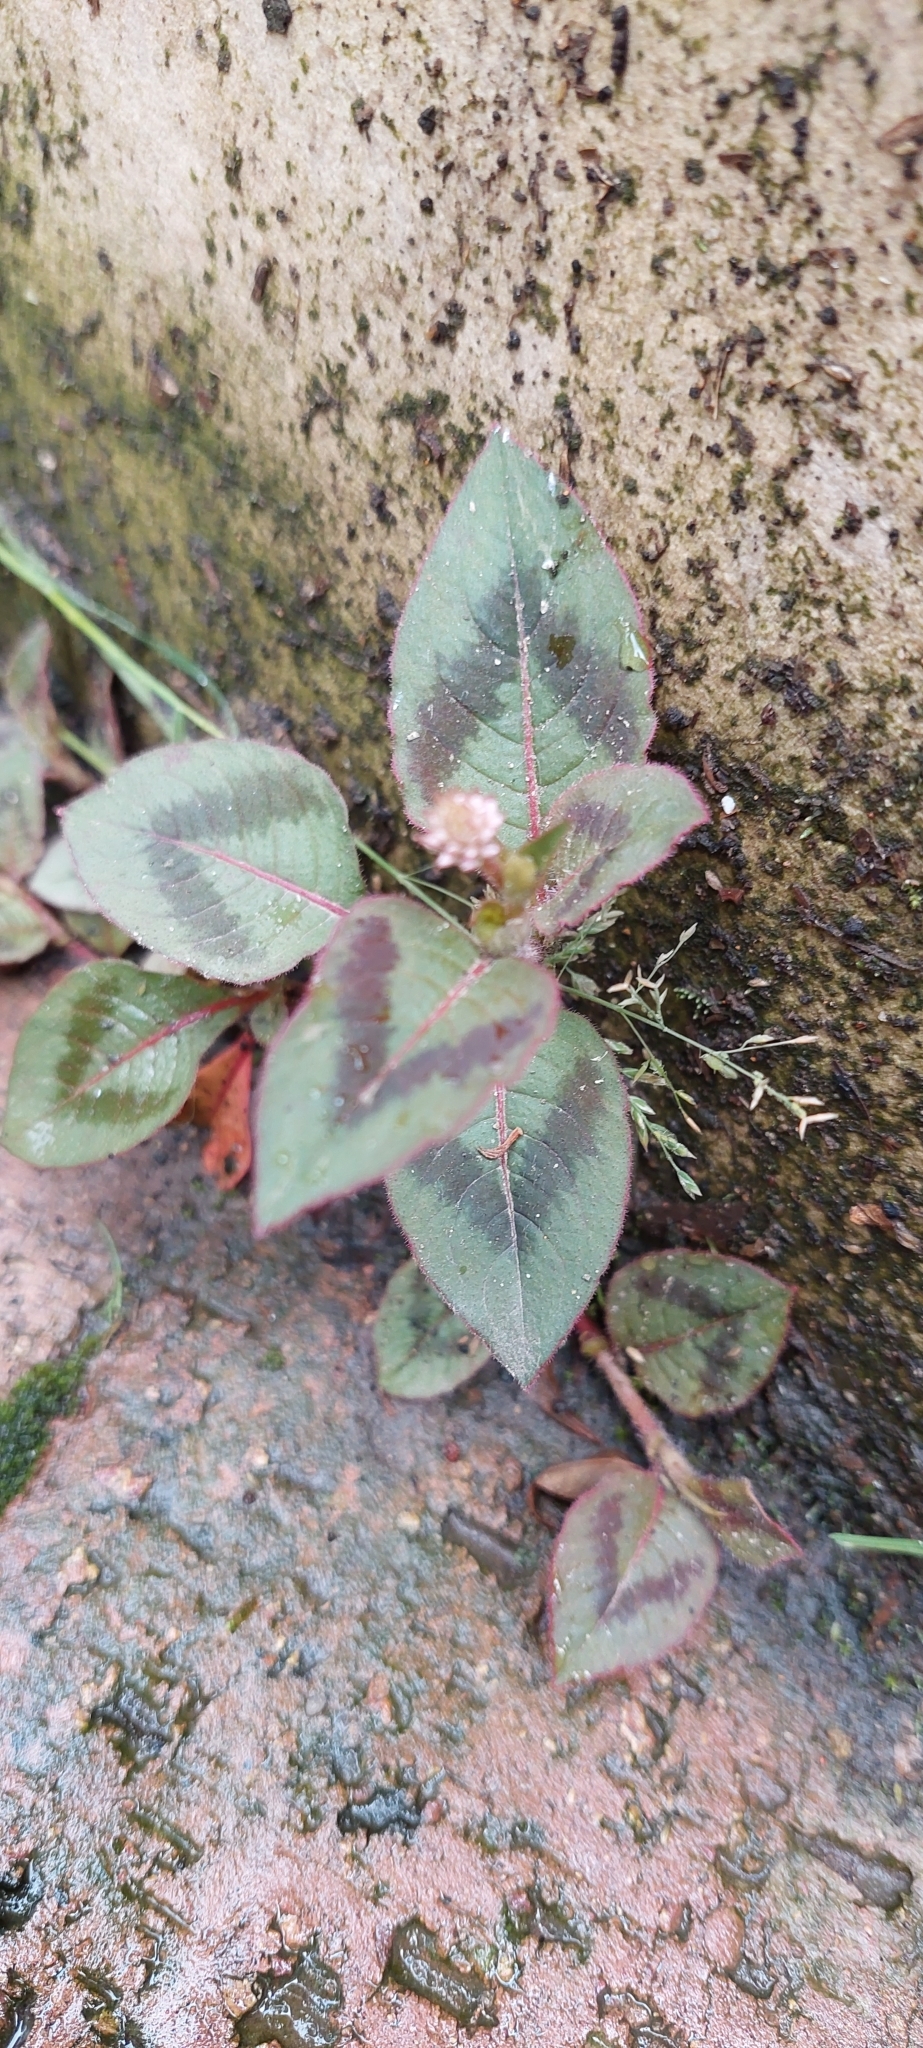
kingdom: Plantae
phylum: Tracheophyta
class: Magnoliopsida
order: Caryophyllales
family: Polygonaceae
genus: Persicaria
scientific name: Persicaria capitata
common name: Pinkhead smartweed
